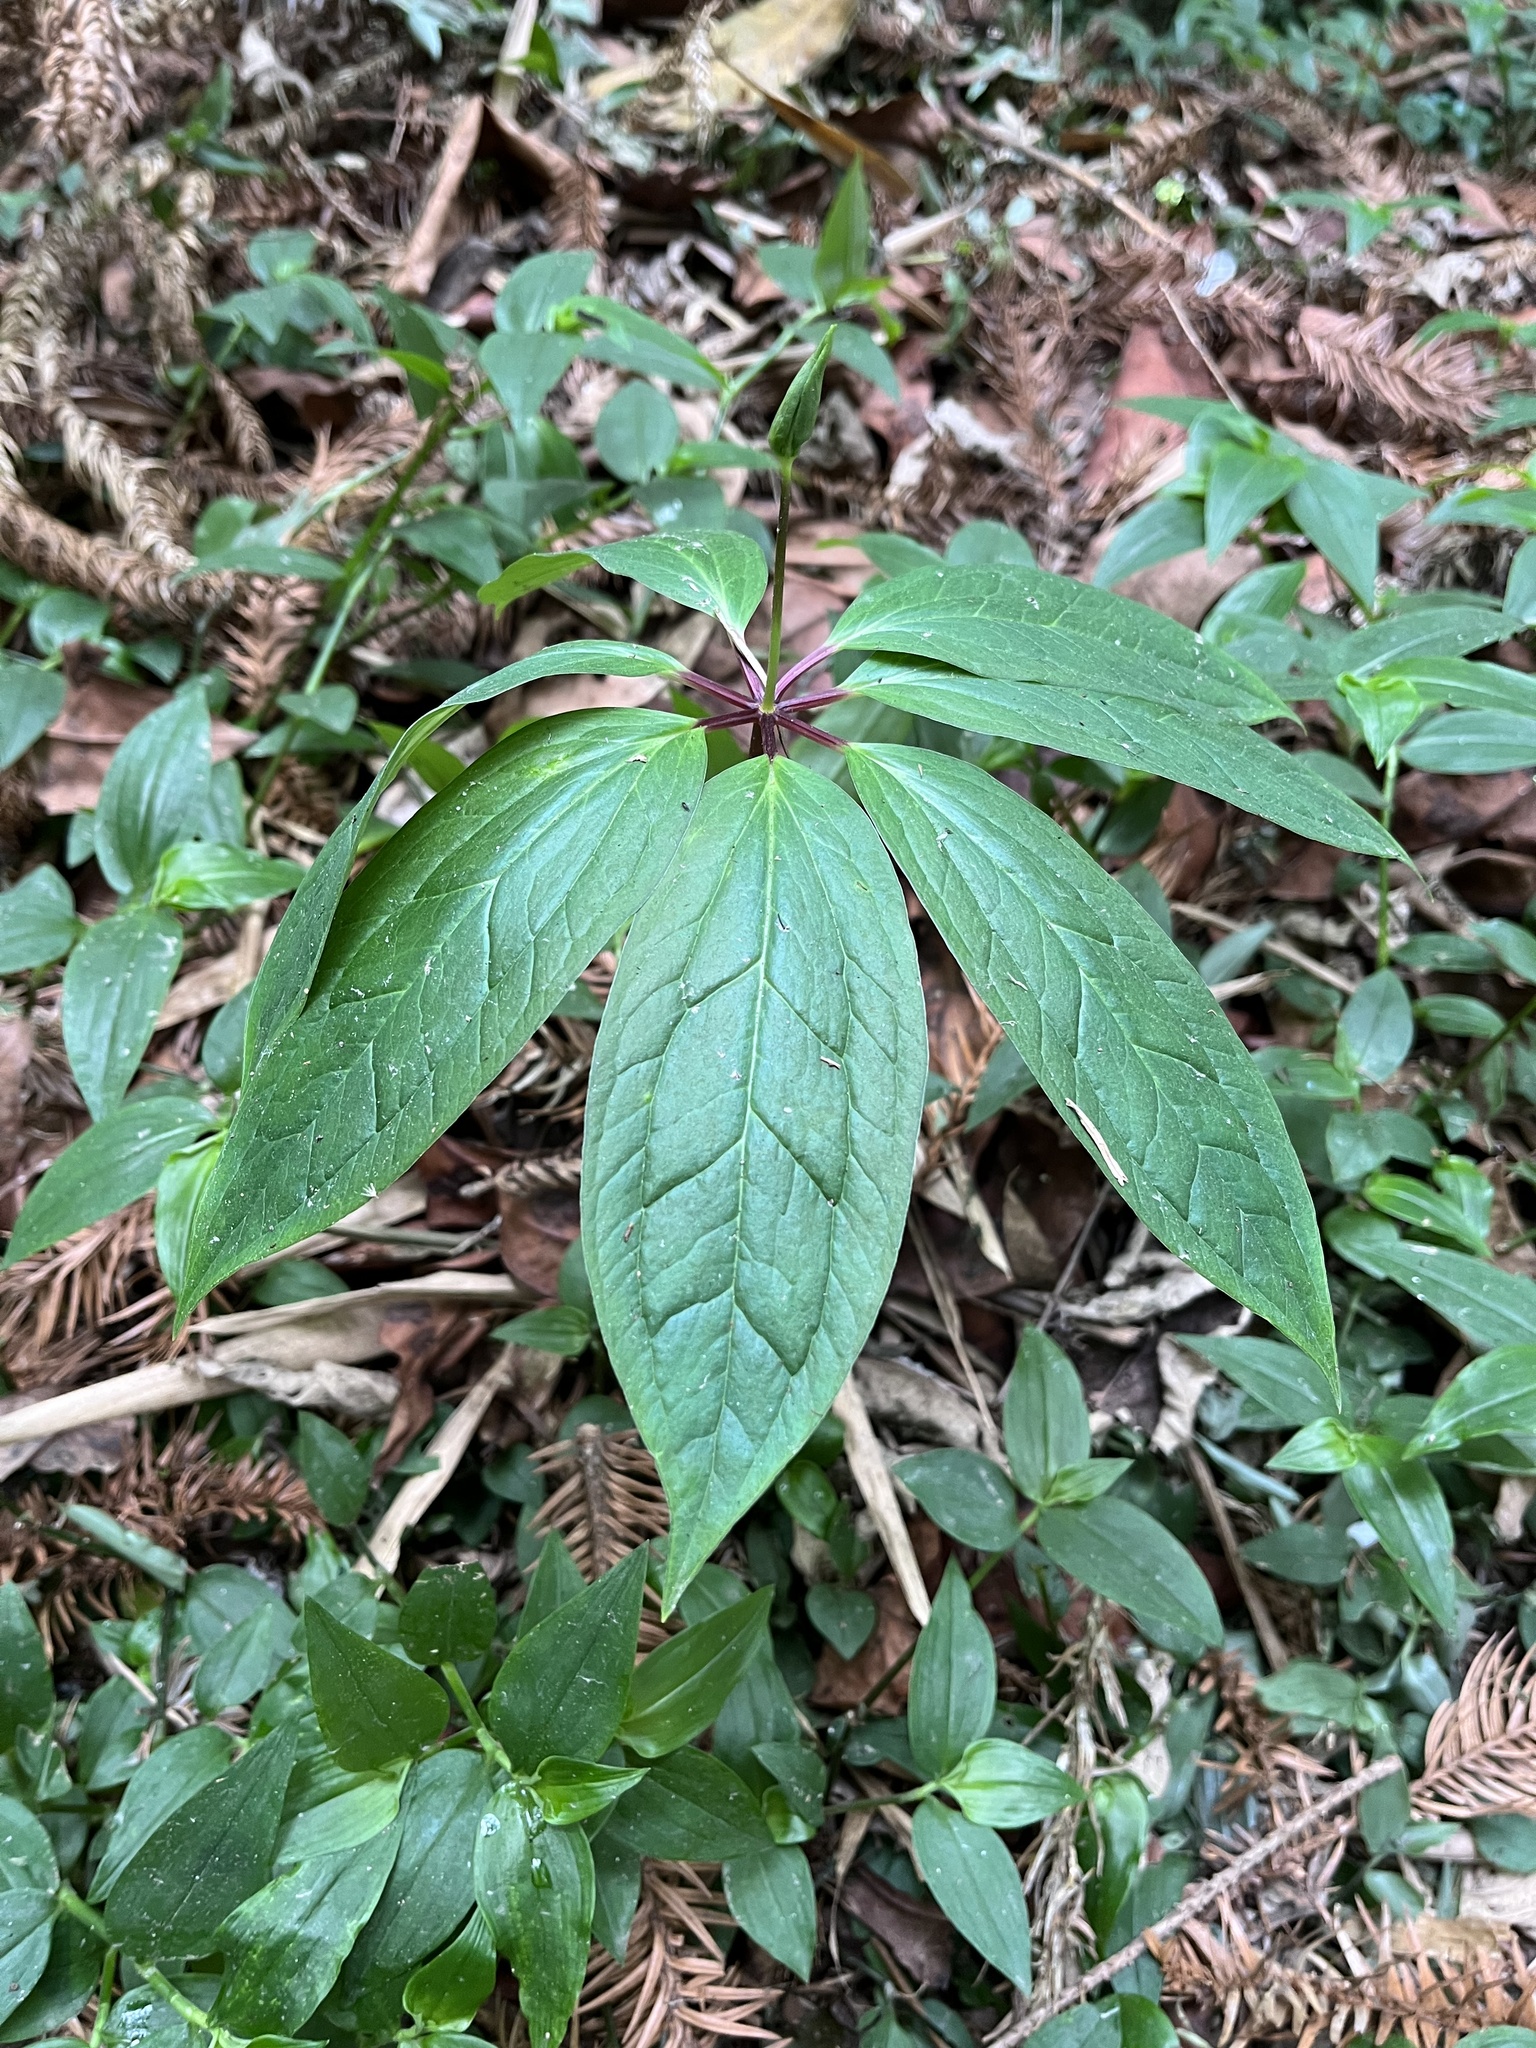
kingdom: Plantae
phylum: Tracheophyta
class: Liliopsida
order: Liliales
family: Melanthiaceae
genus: Paris
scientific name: Paris polyphylla
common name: Love apple
